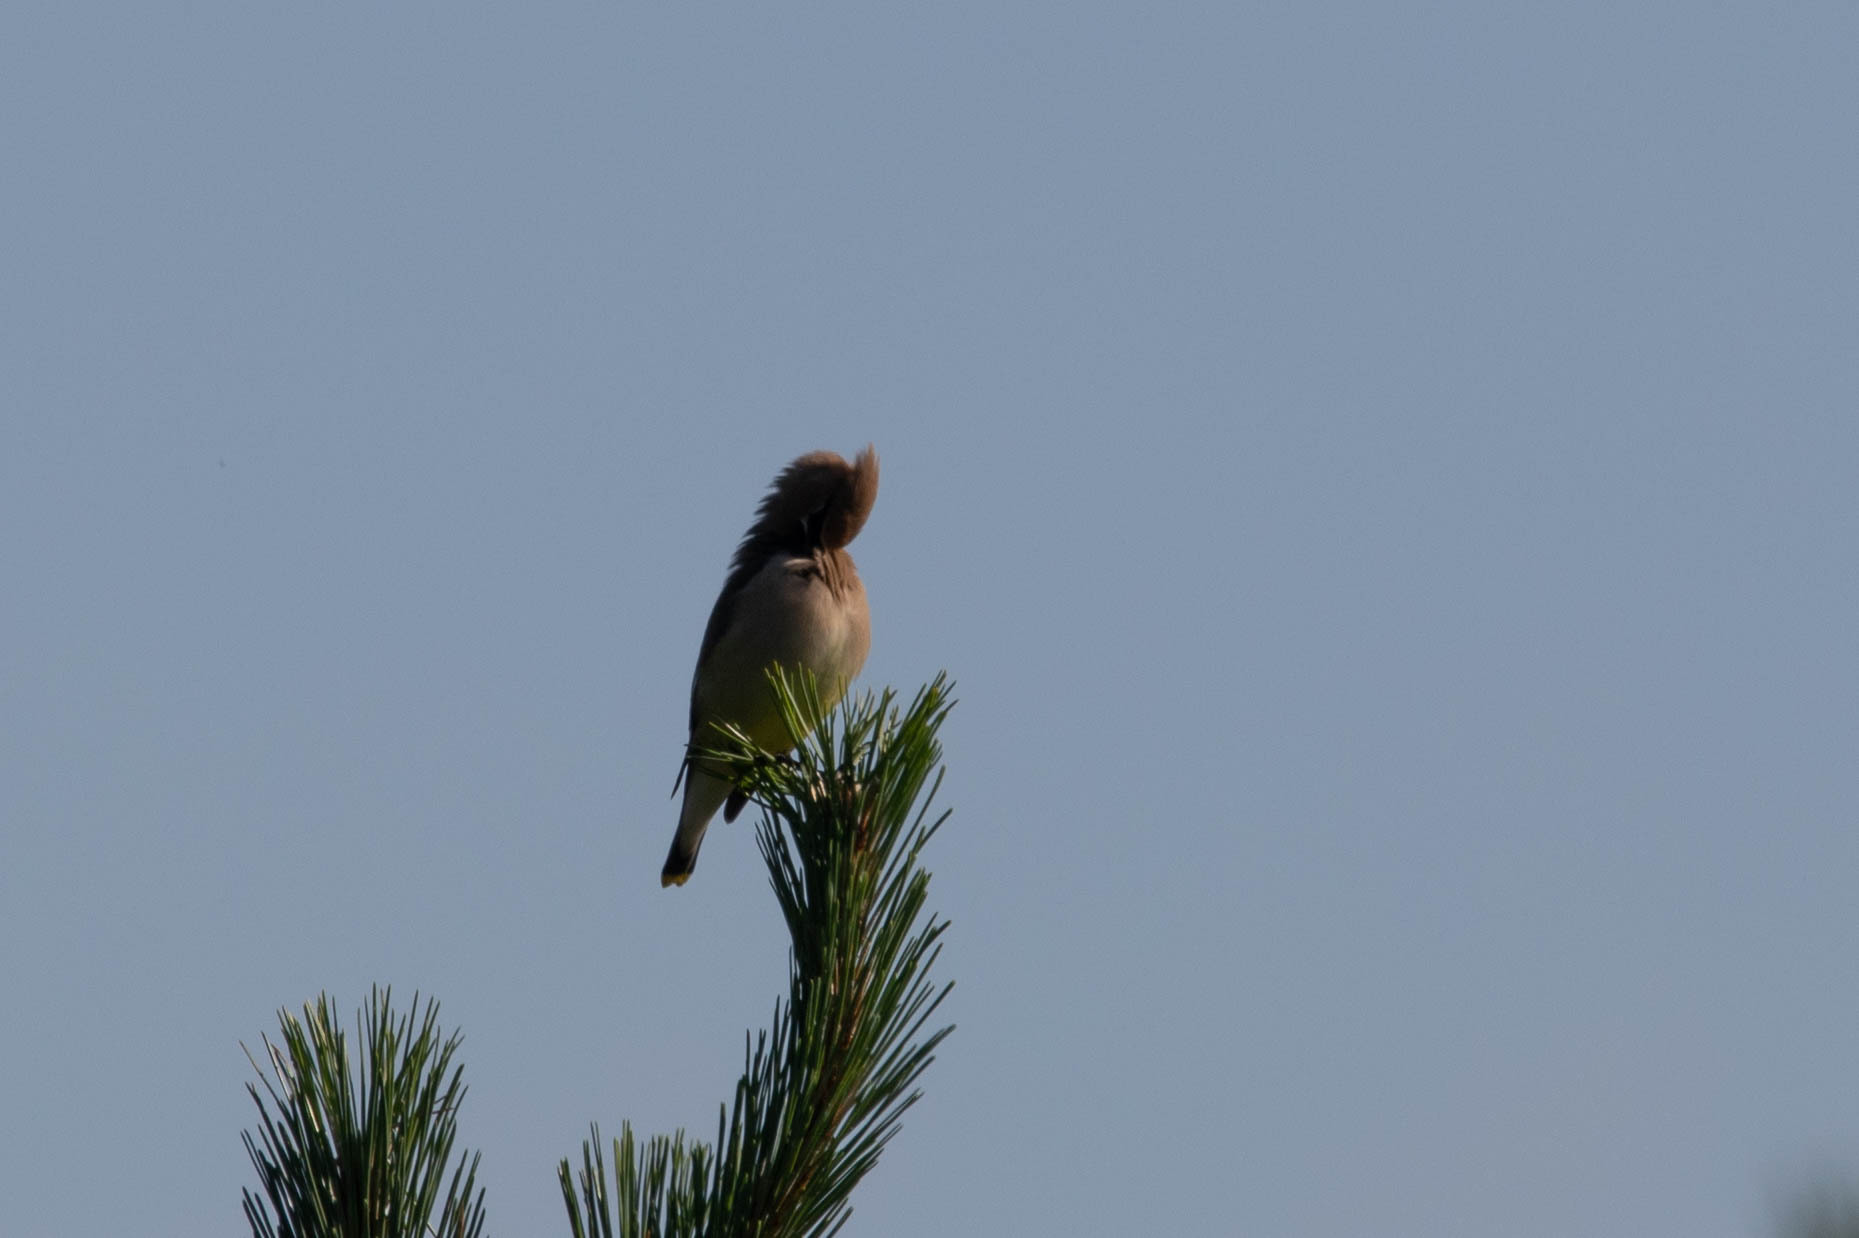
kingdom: Animalia
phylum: Chordata
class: Aves
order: Passeriformes
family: Bombycillidae
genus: Bombycilla
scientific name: Bombycilla cedrorum
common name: Cedar waxwing
